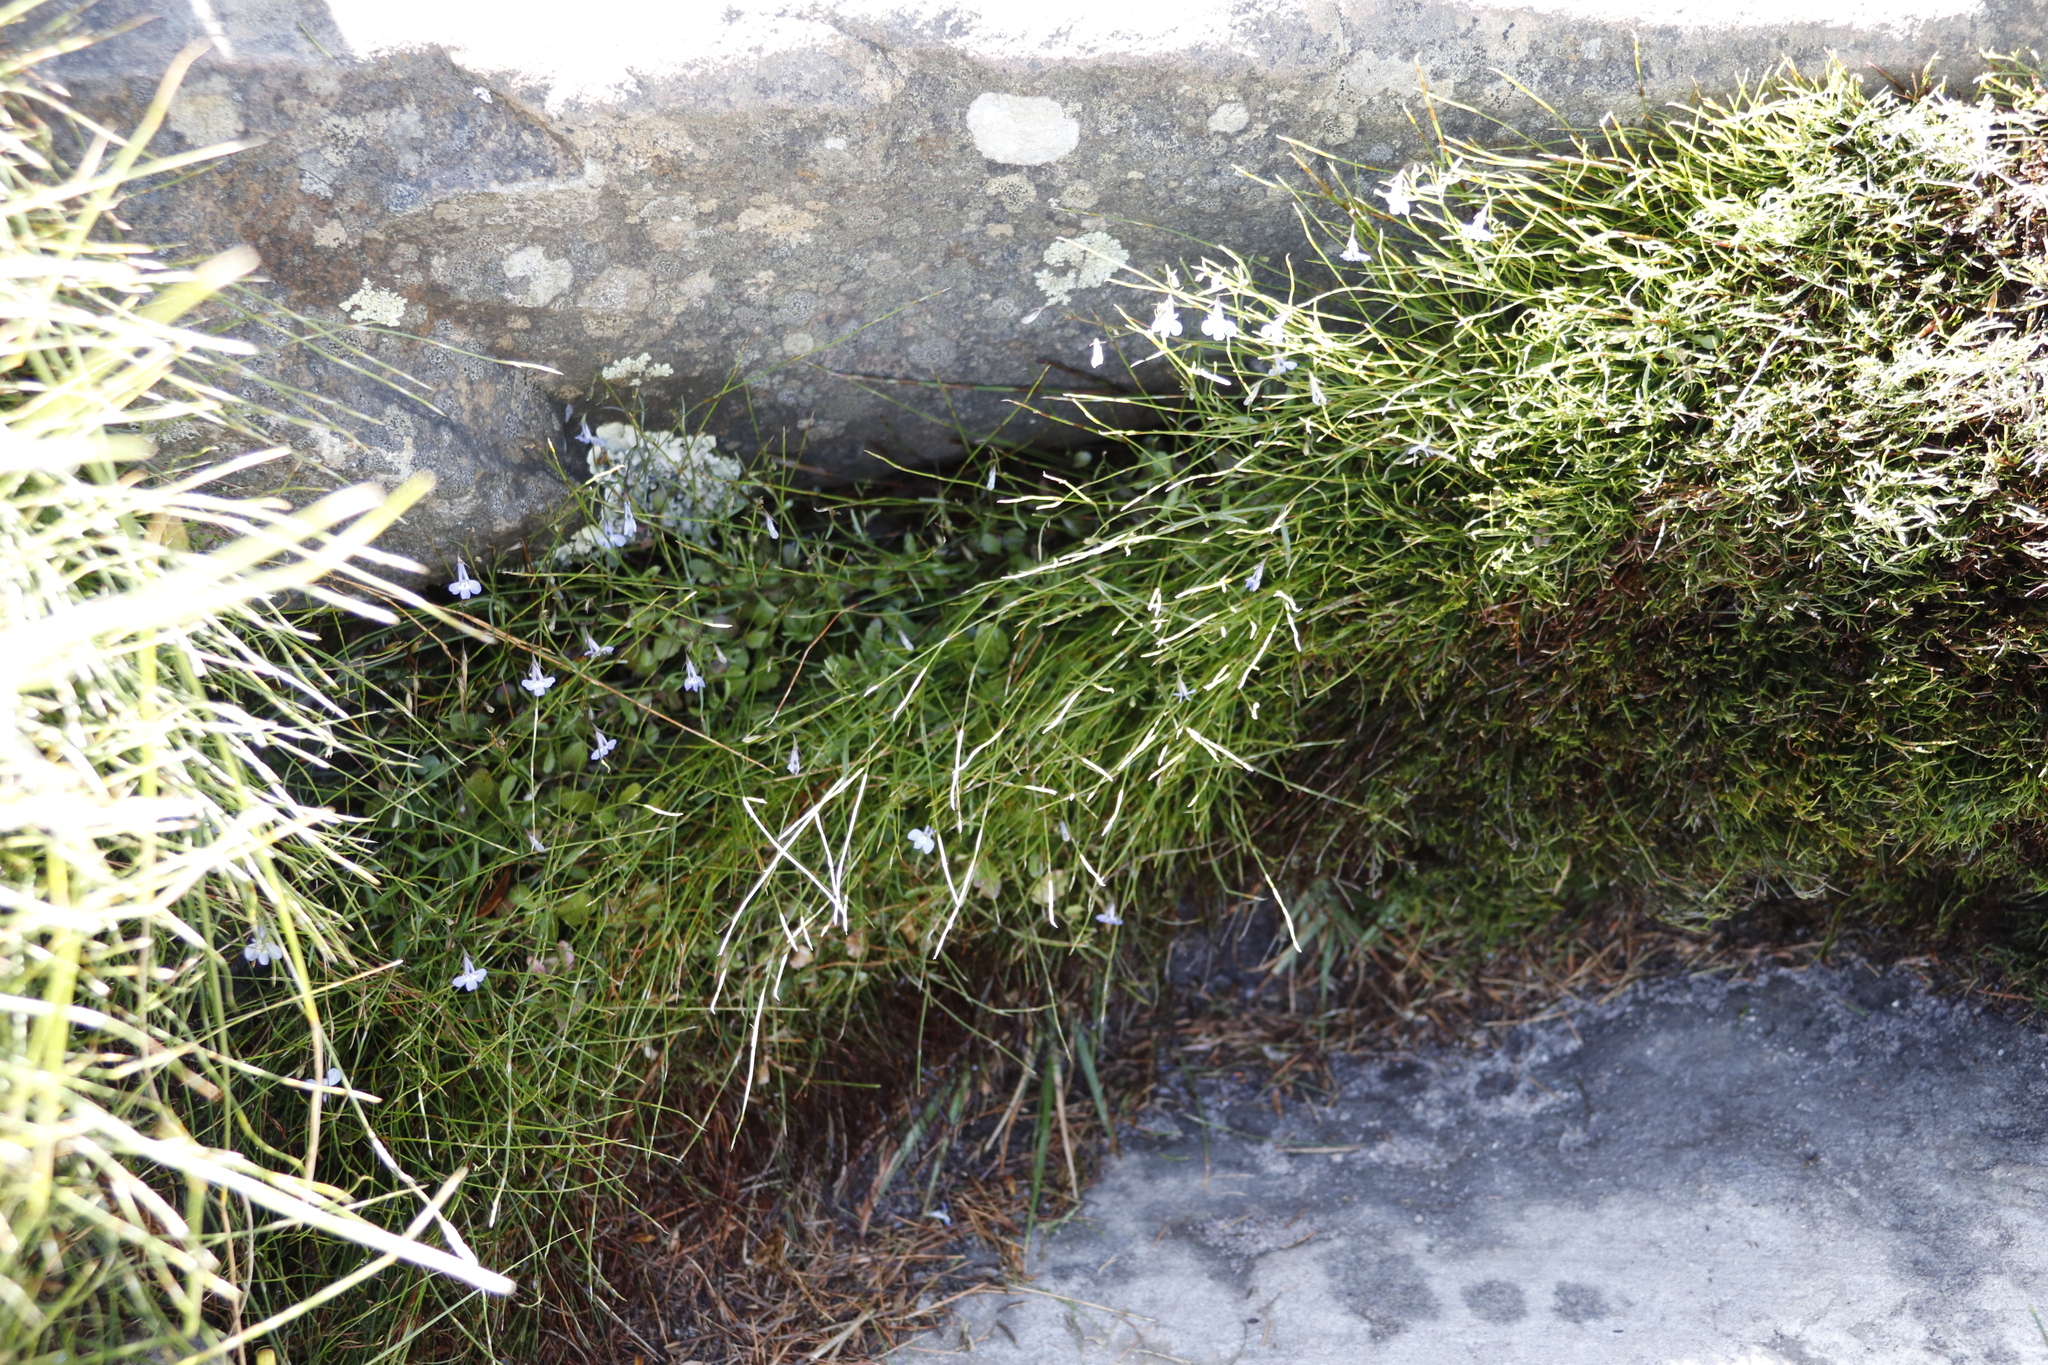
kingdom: Plantae
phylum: Tracheophyta
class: Magnoliopsida
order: Asterales
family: Campanulaceae
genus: Lobelia
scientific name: Lobelia erinus
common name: Edging lobelia
